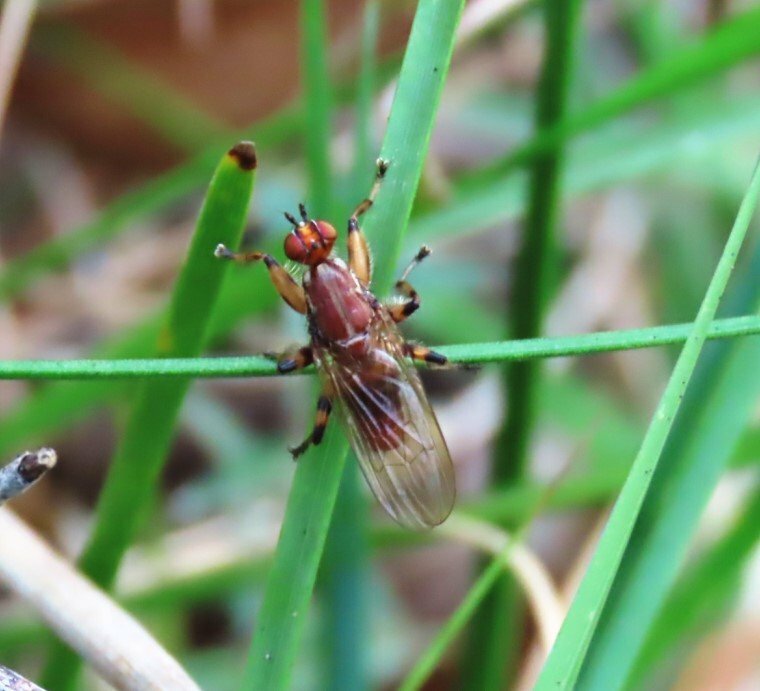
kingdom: Animalia
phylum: Arthropoda
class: Insecta
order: Diptera
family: Heleomyzidae
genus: Tapeigaster
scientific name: Tapeigaster annulipes
